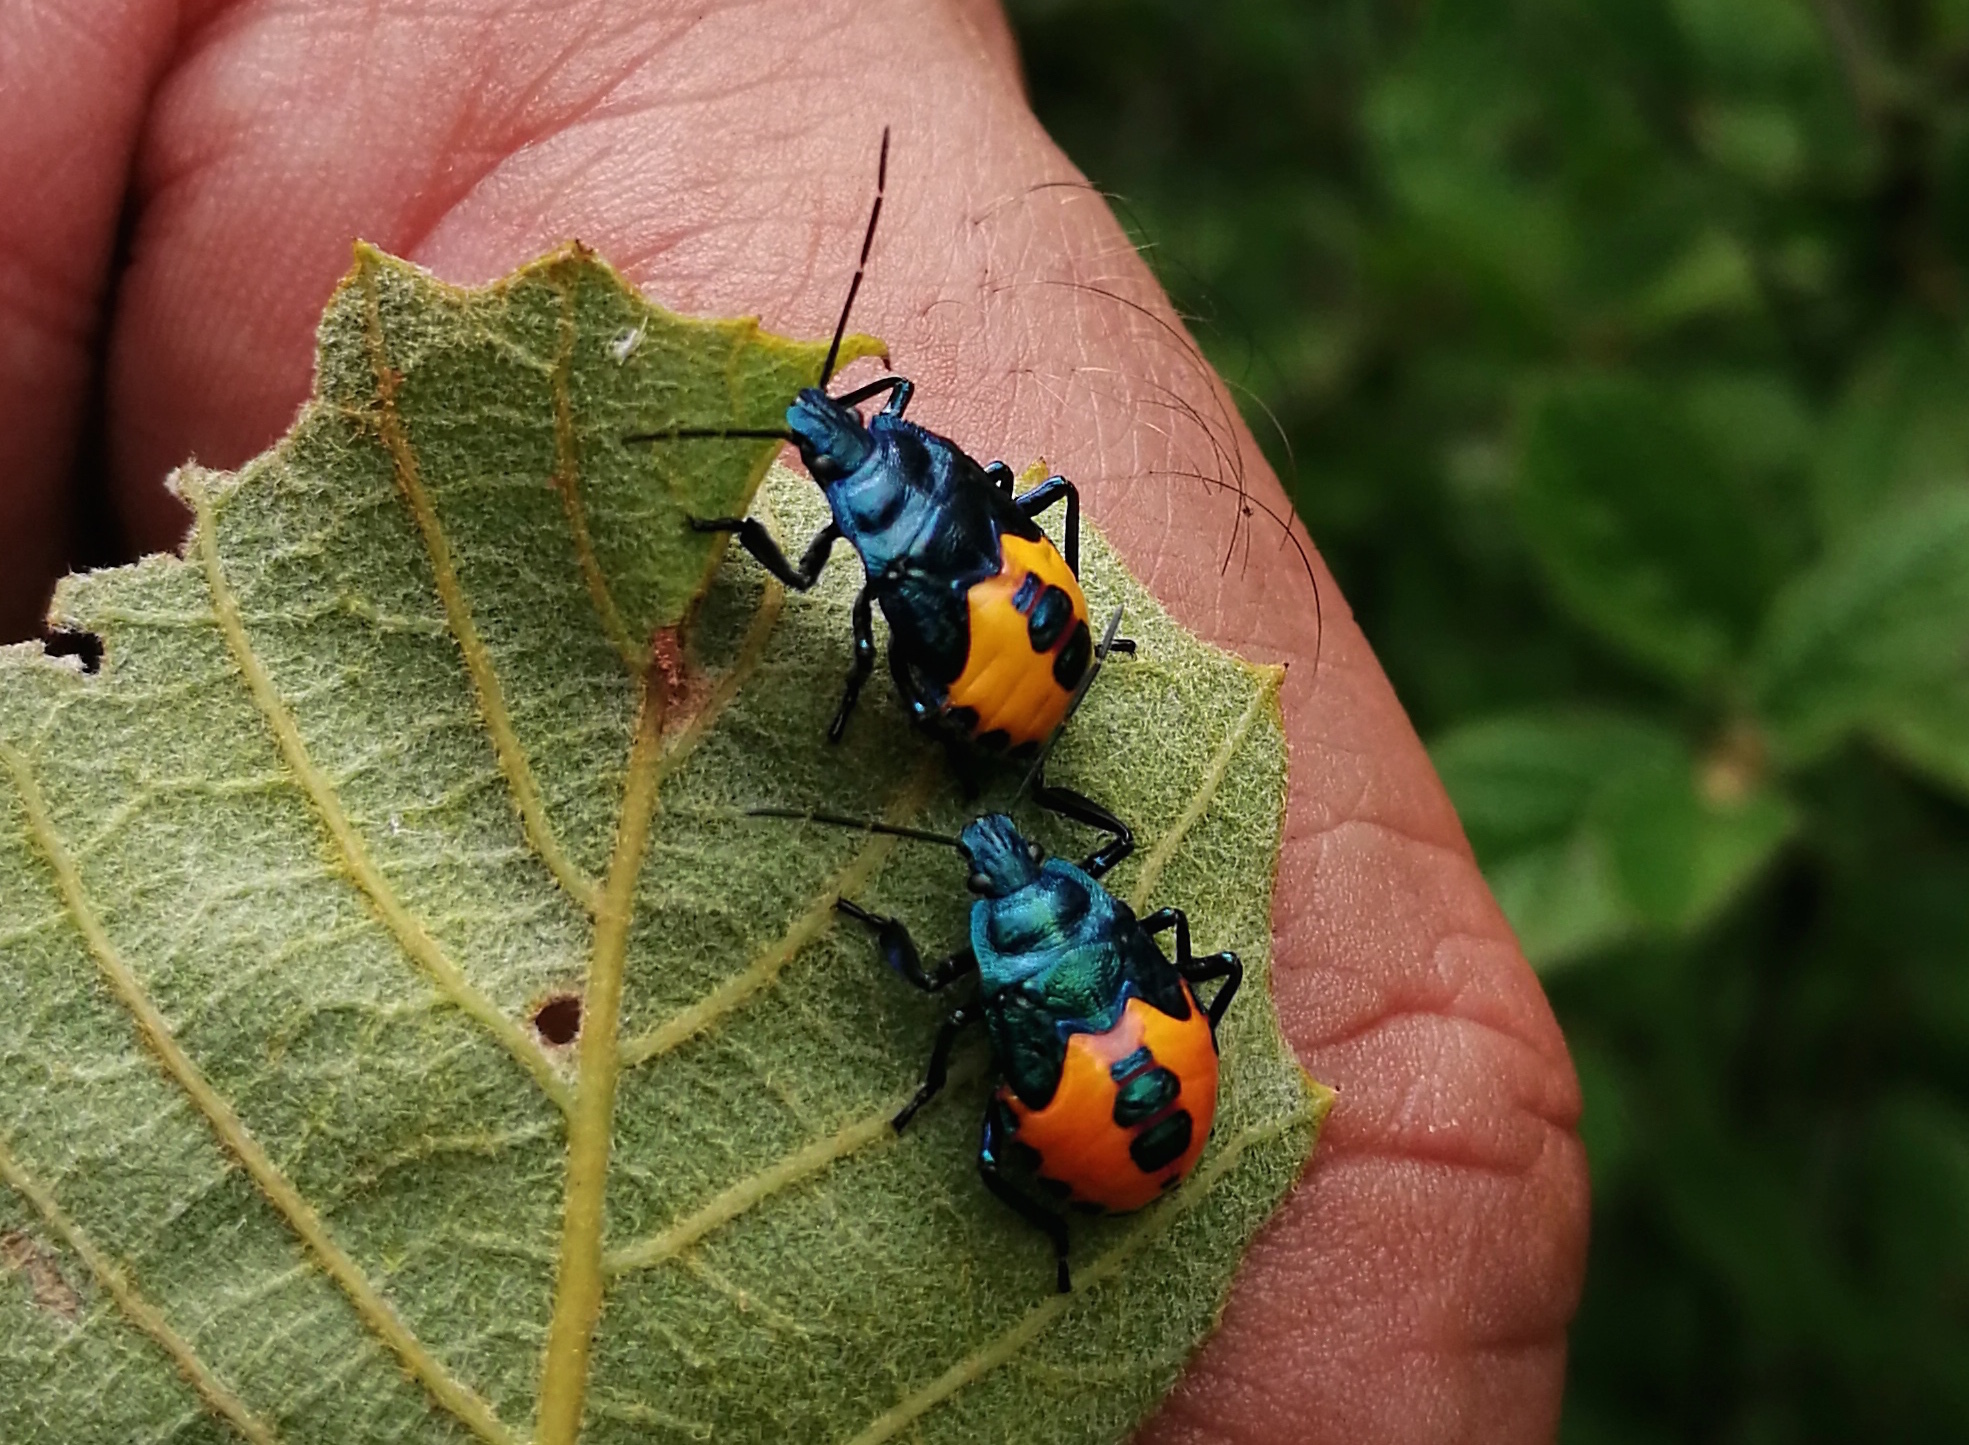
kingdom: Animalia
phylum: Arthropoda
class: Insecta
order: Hemiptera
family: Pentatomidae
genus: Euthyrhynchus
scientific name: Euthyrhynchus floridanus
